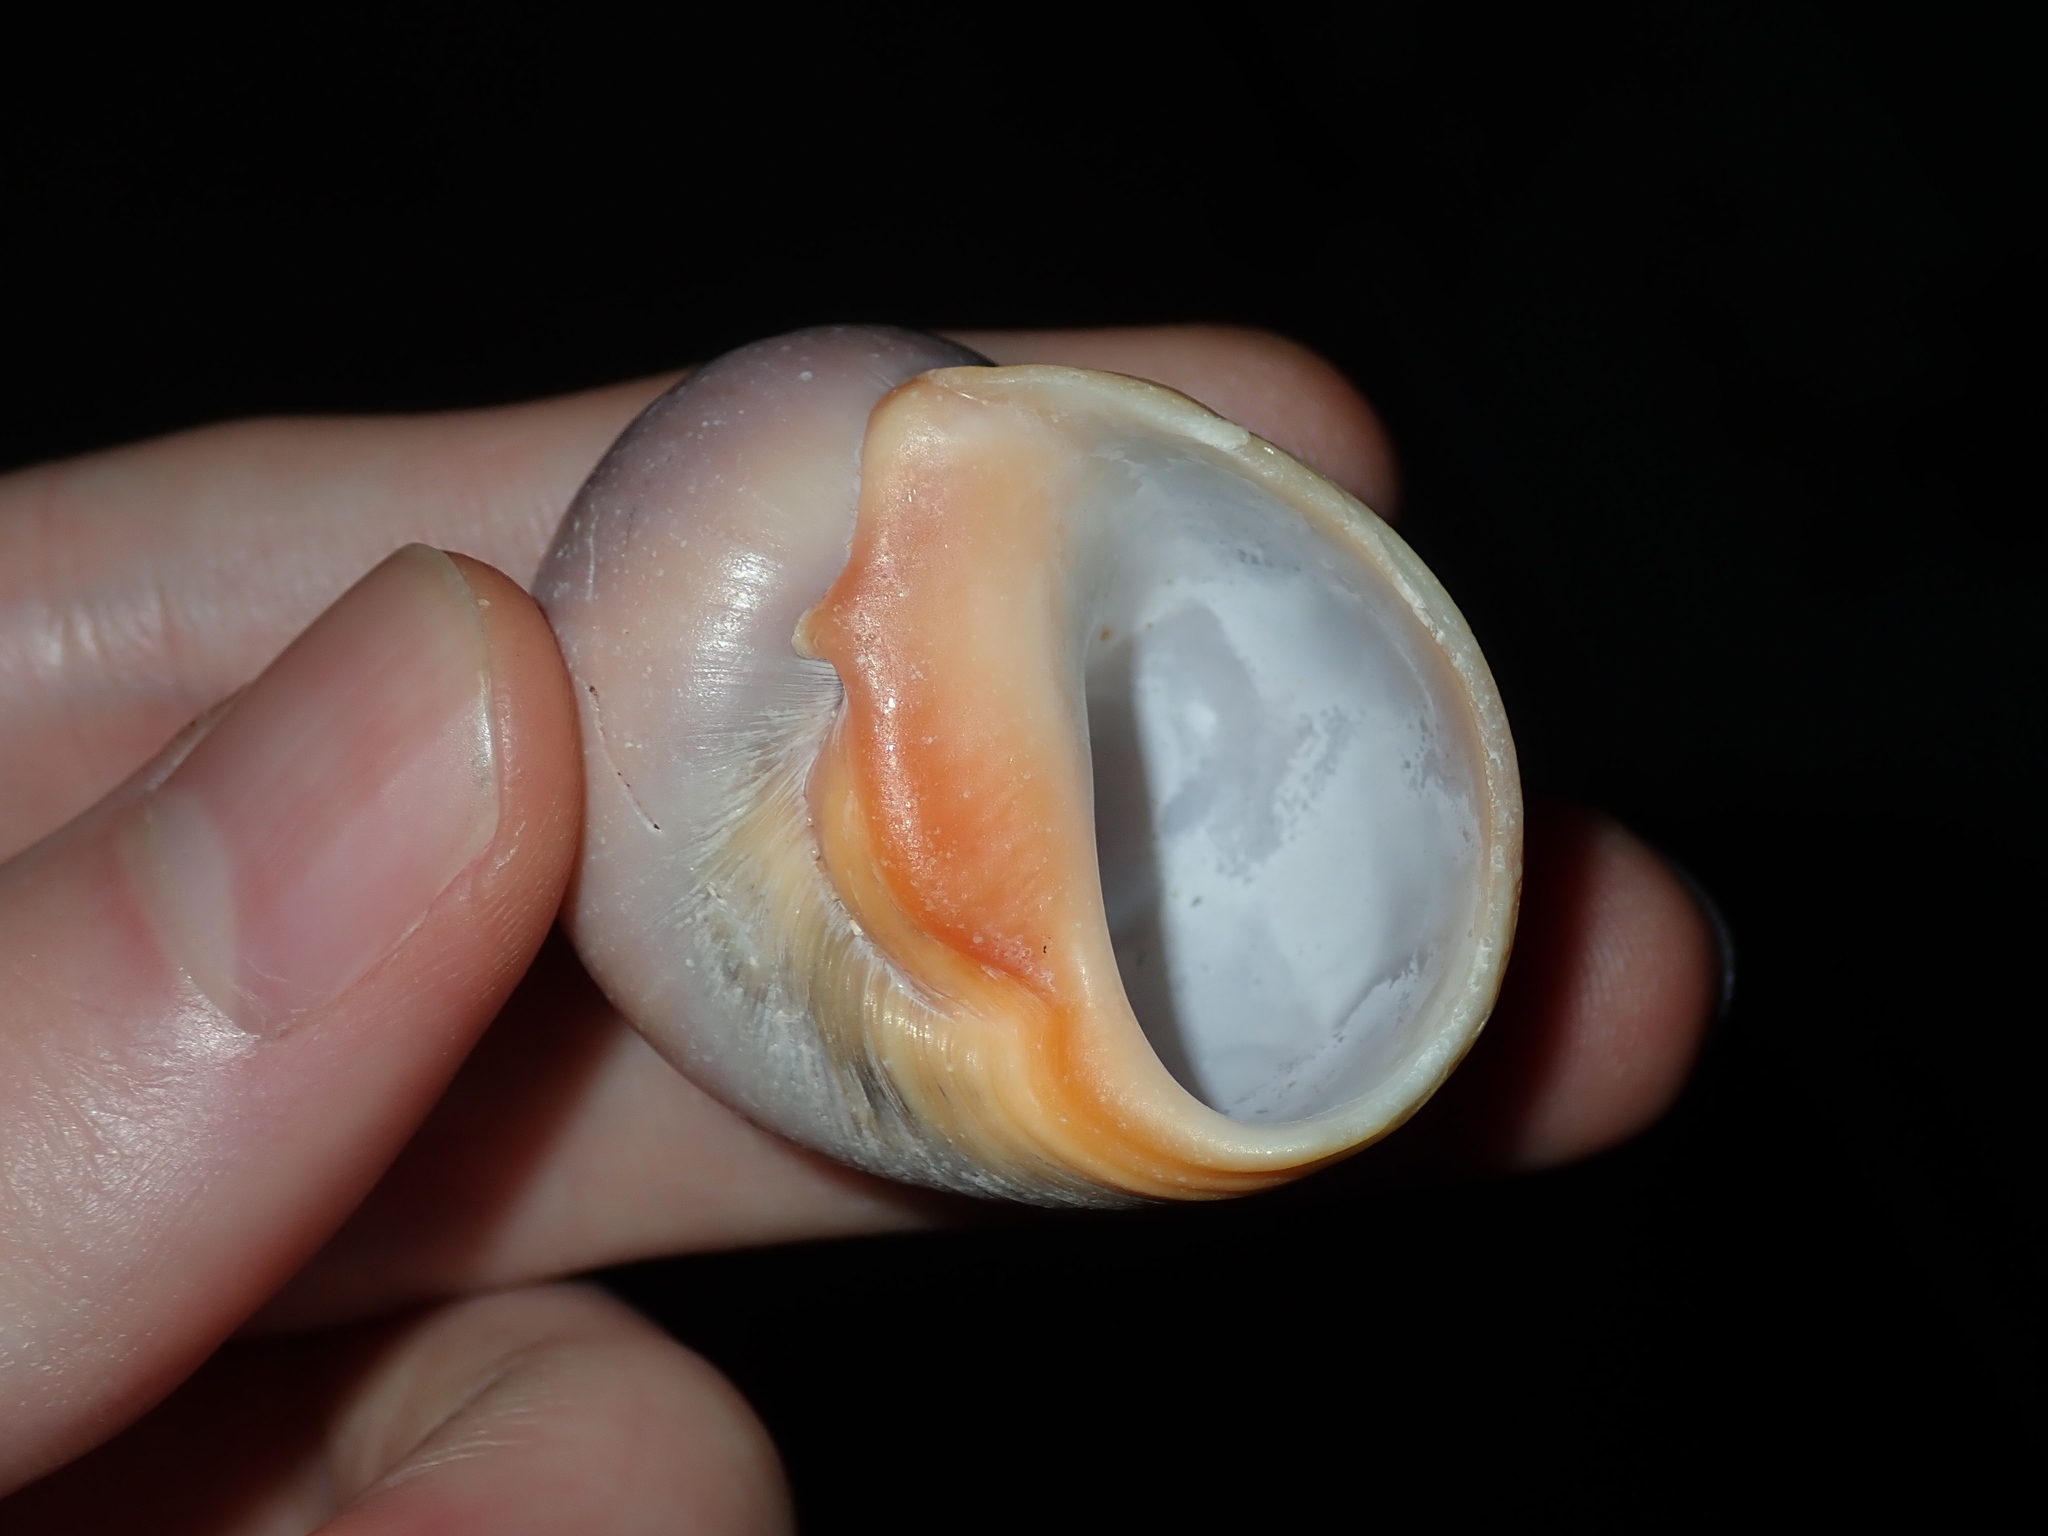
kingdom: Animalia
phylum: Mollusca
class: Gastropoda
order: Littorinimorpha
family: Naticidae
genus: Conuber
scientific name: Conuber melastoma
